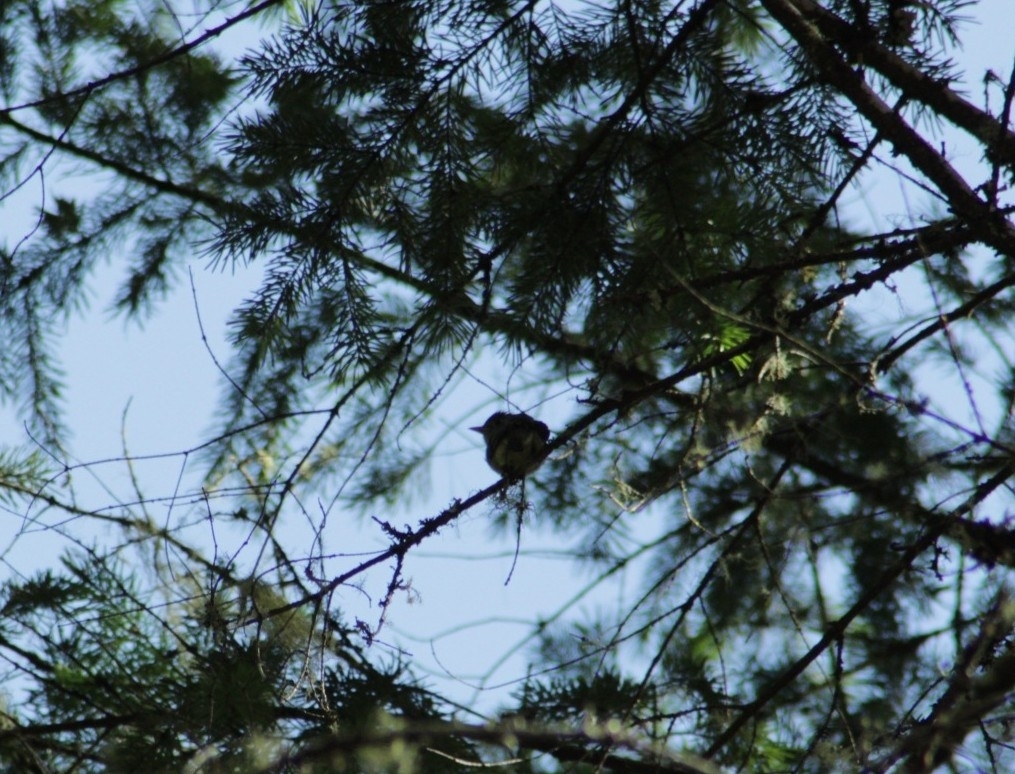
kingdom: Animalia
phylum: Chordata
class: Aves
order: Passeriformes
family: Tyrannidae
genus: Empidonax
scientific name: Empidonax difficilis
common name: Pacific-slope flycatcher
